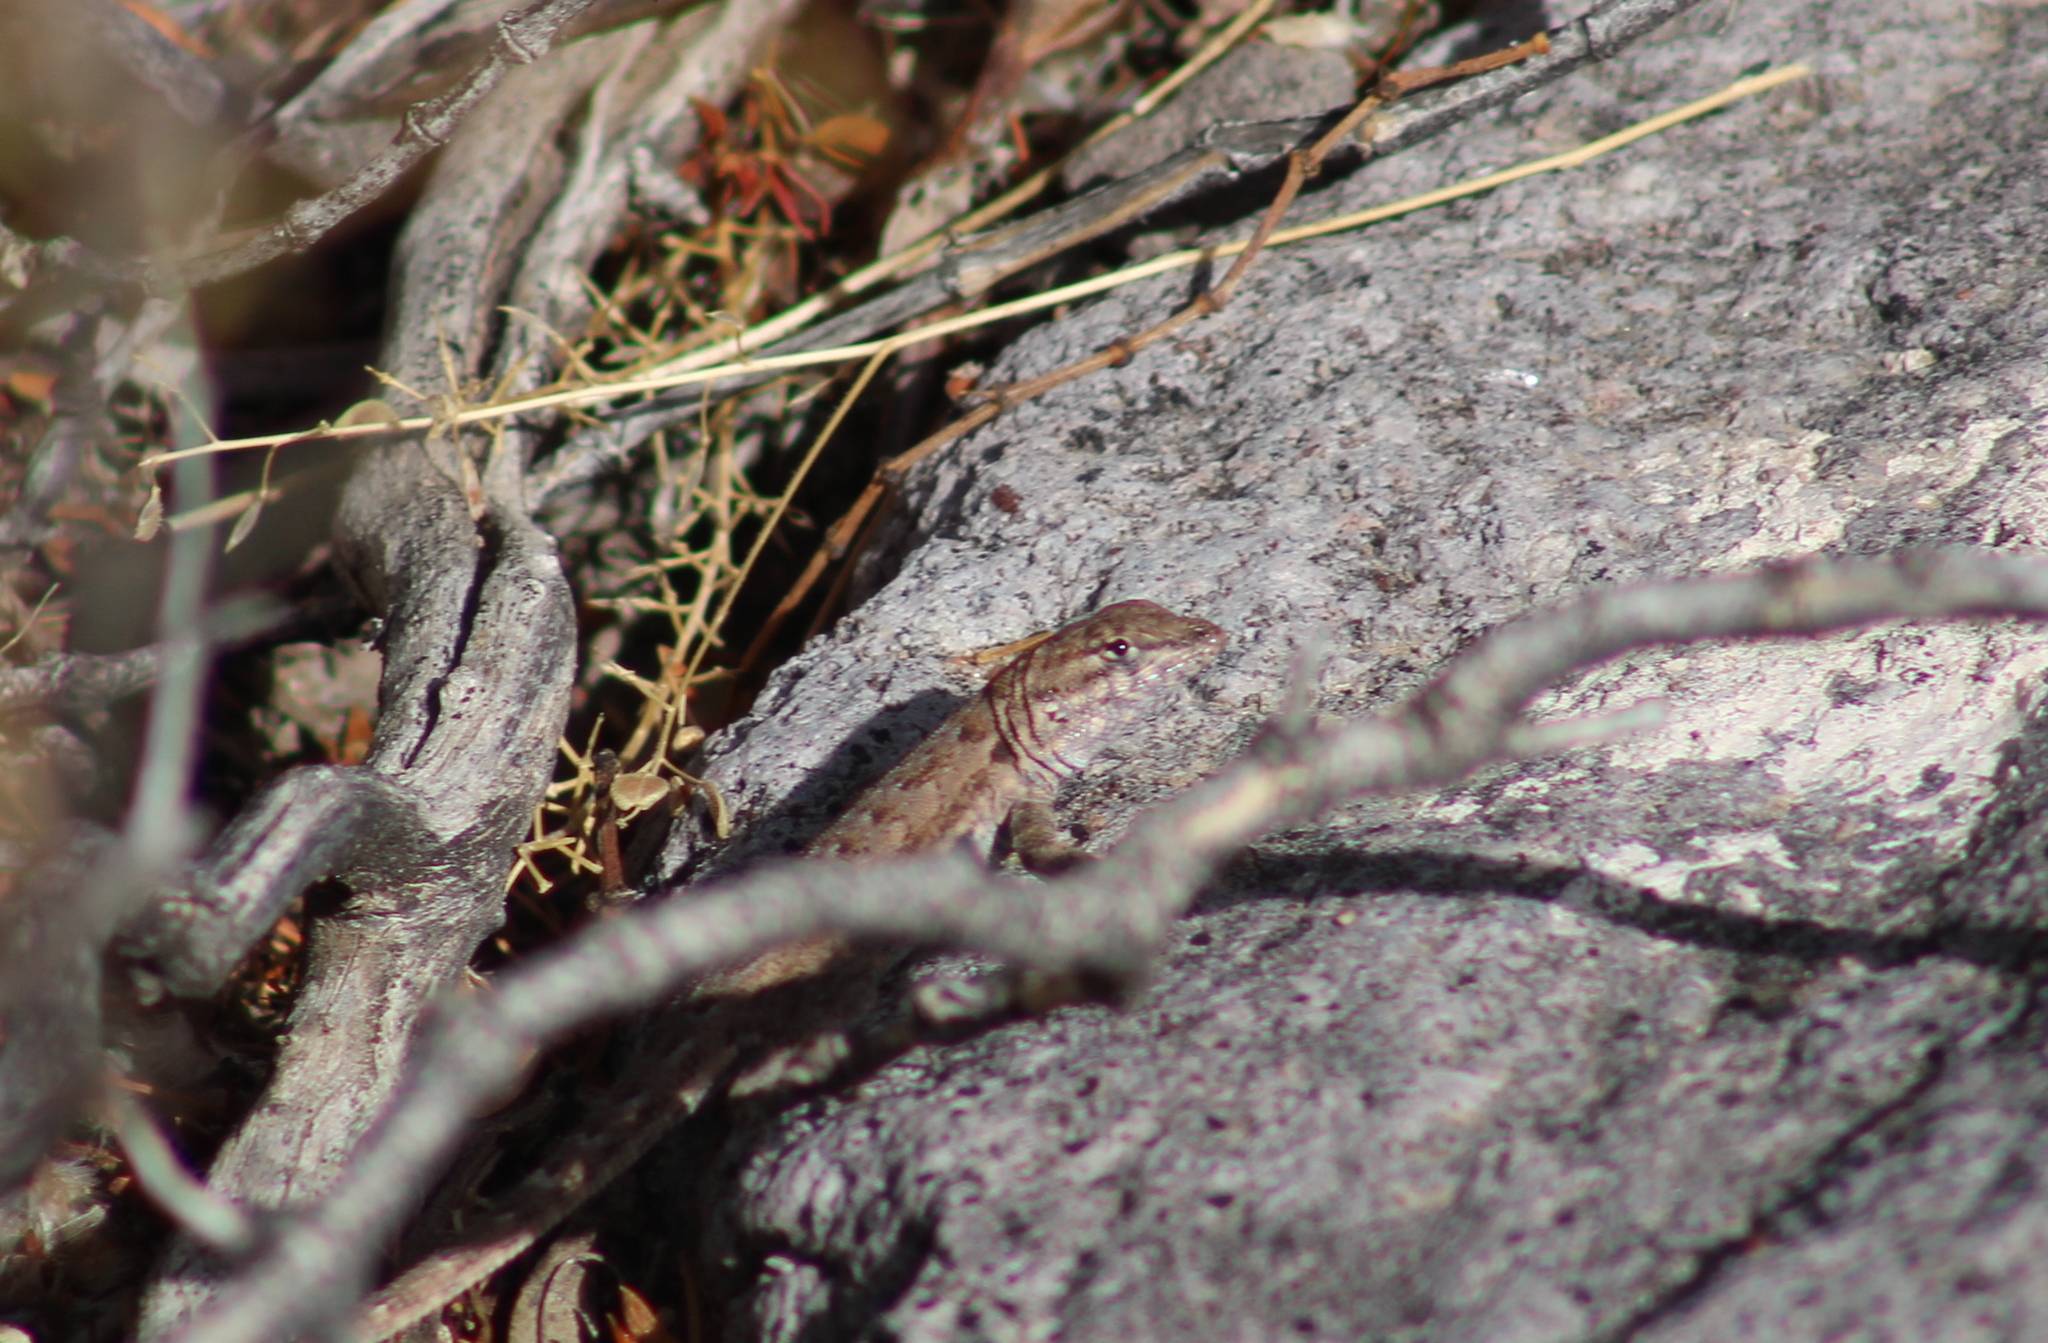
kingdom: Animalia
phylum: Chordata
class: Squamata
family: Phrynosomatidae
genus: Uta
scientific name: Uta stansburiana
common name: Side-blotched lizard
